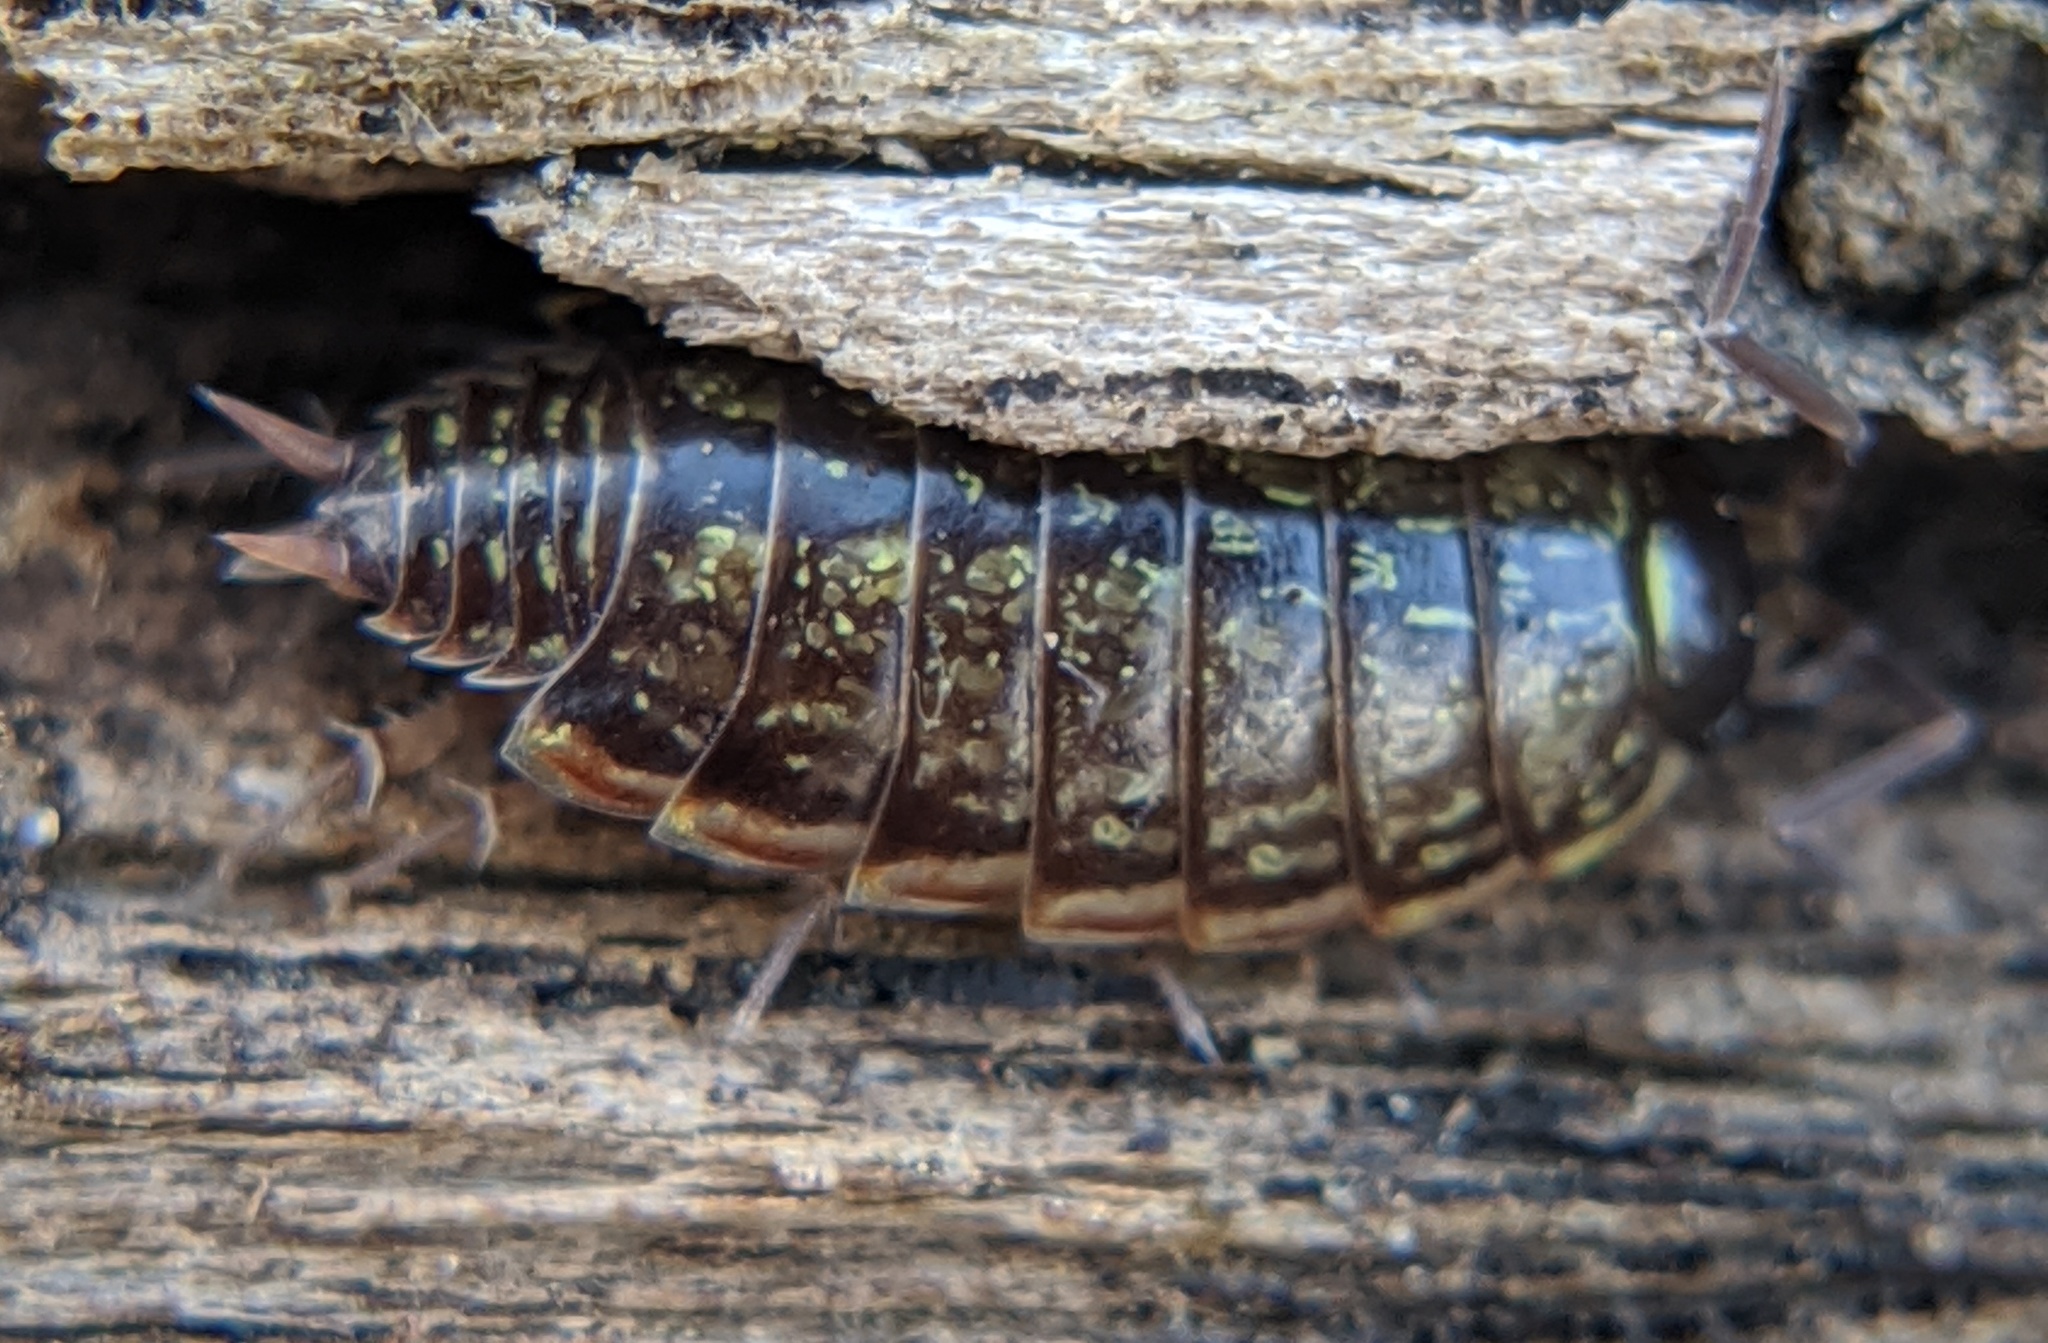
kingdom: Animalia
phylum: Arthropoda
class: Malacostraca
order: Isopoda
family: Philosciidae
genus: Philoscia
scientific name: Philoscia muscorum
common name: Common striped woodlouse
